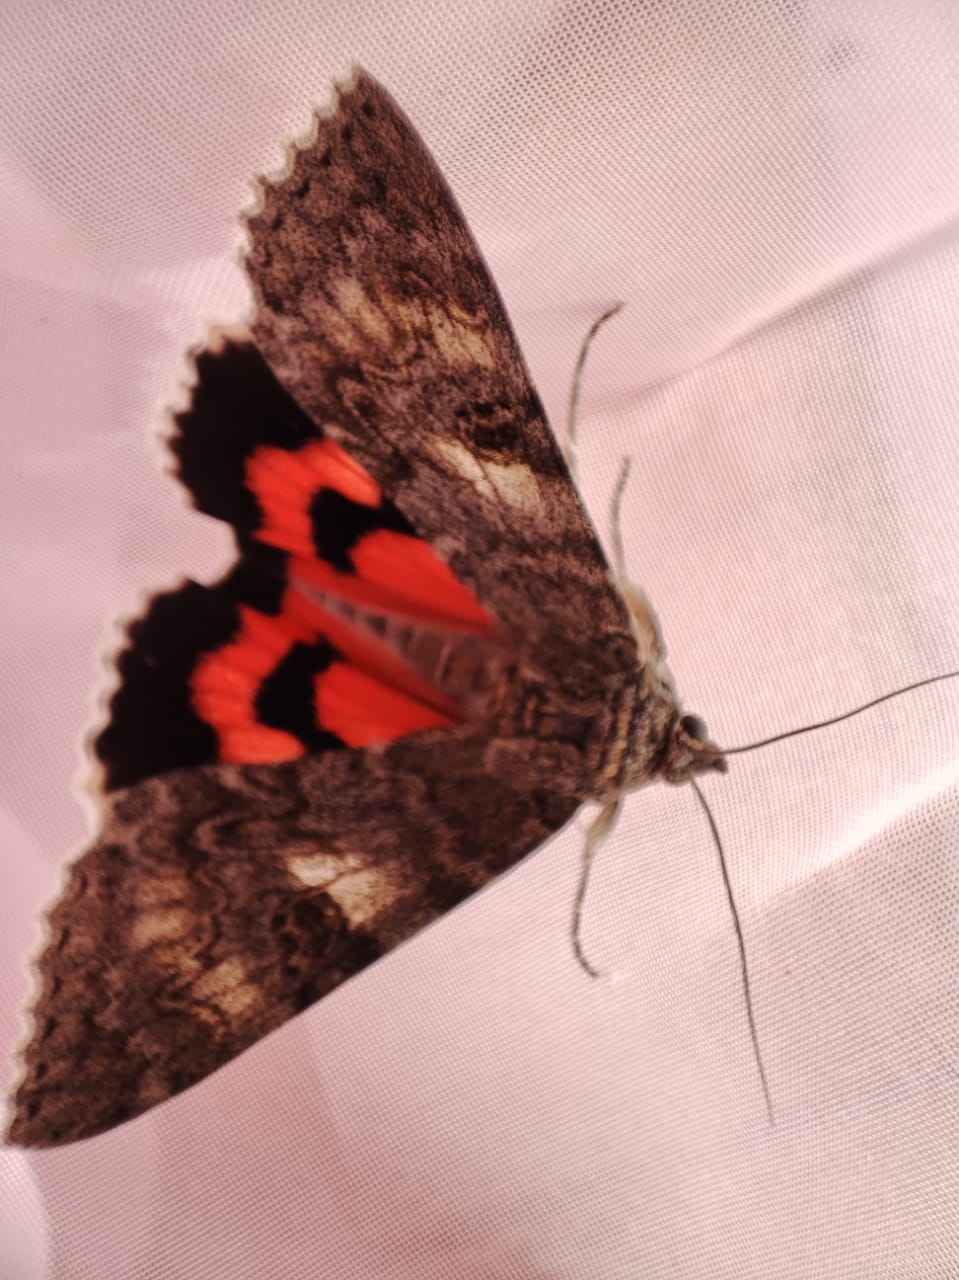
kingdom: Animalia
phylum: Arthropoda
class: Insecta
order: Lepidoptera
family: Erebidae
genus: Catocala
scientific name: Catocala nupta
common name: Red underwing
